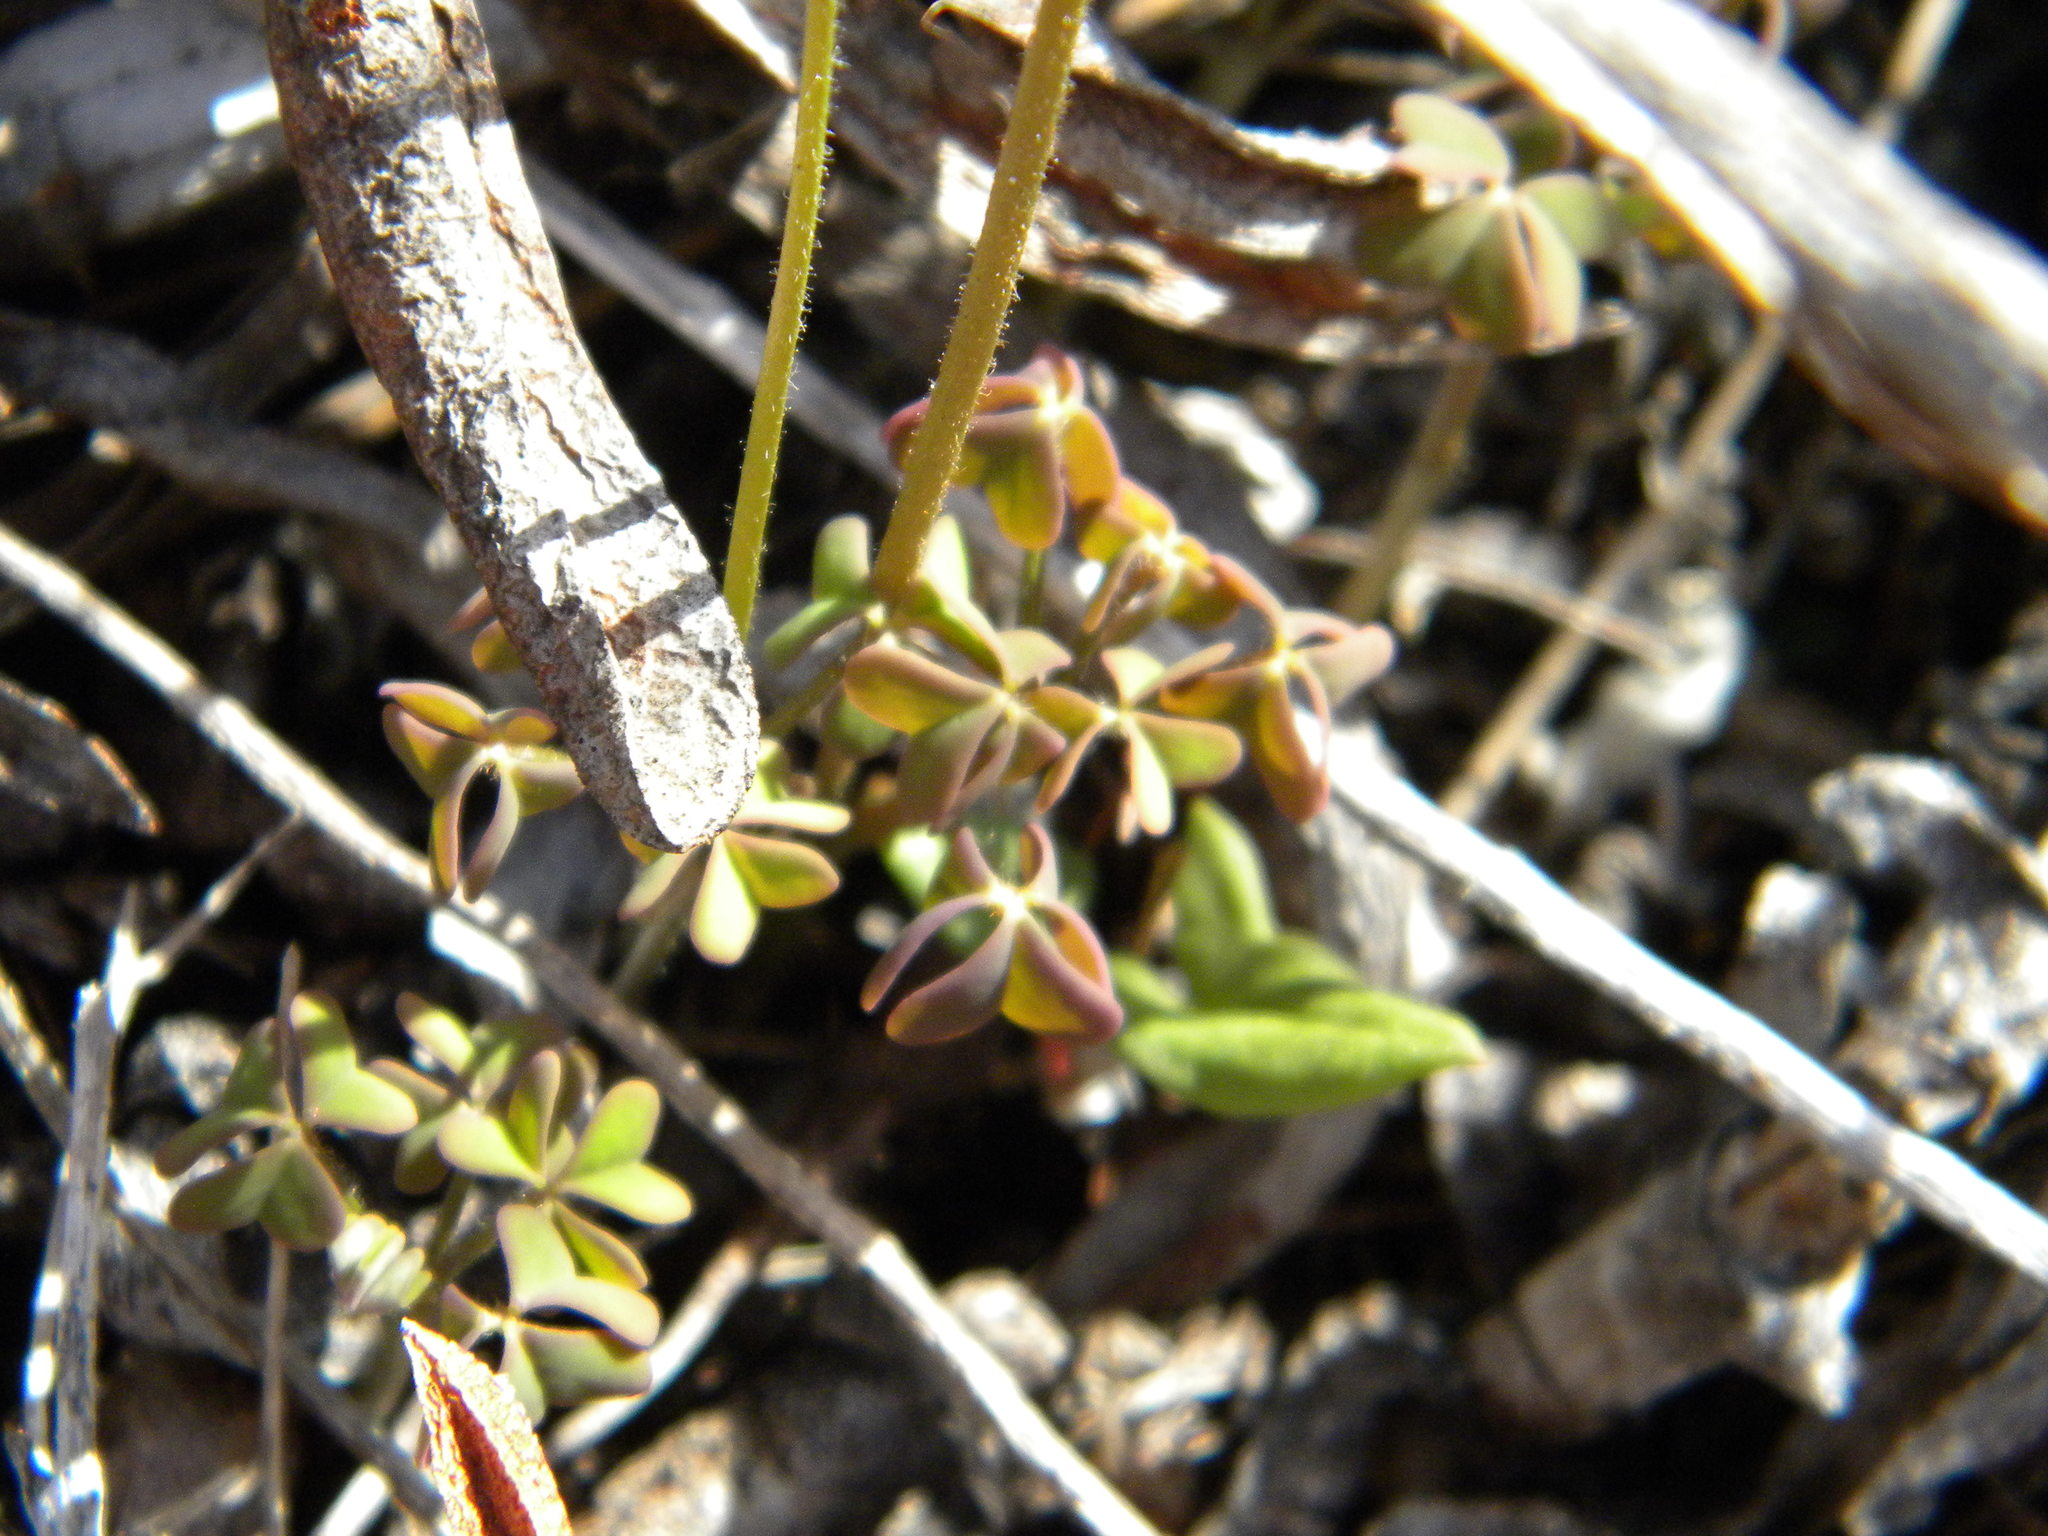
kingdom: Plantae
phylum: Tracheophyta
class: Magnoliopsida
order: Oxalidales
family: Oxalidaceae
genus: Oxalis
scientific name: Oxalis
